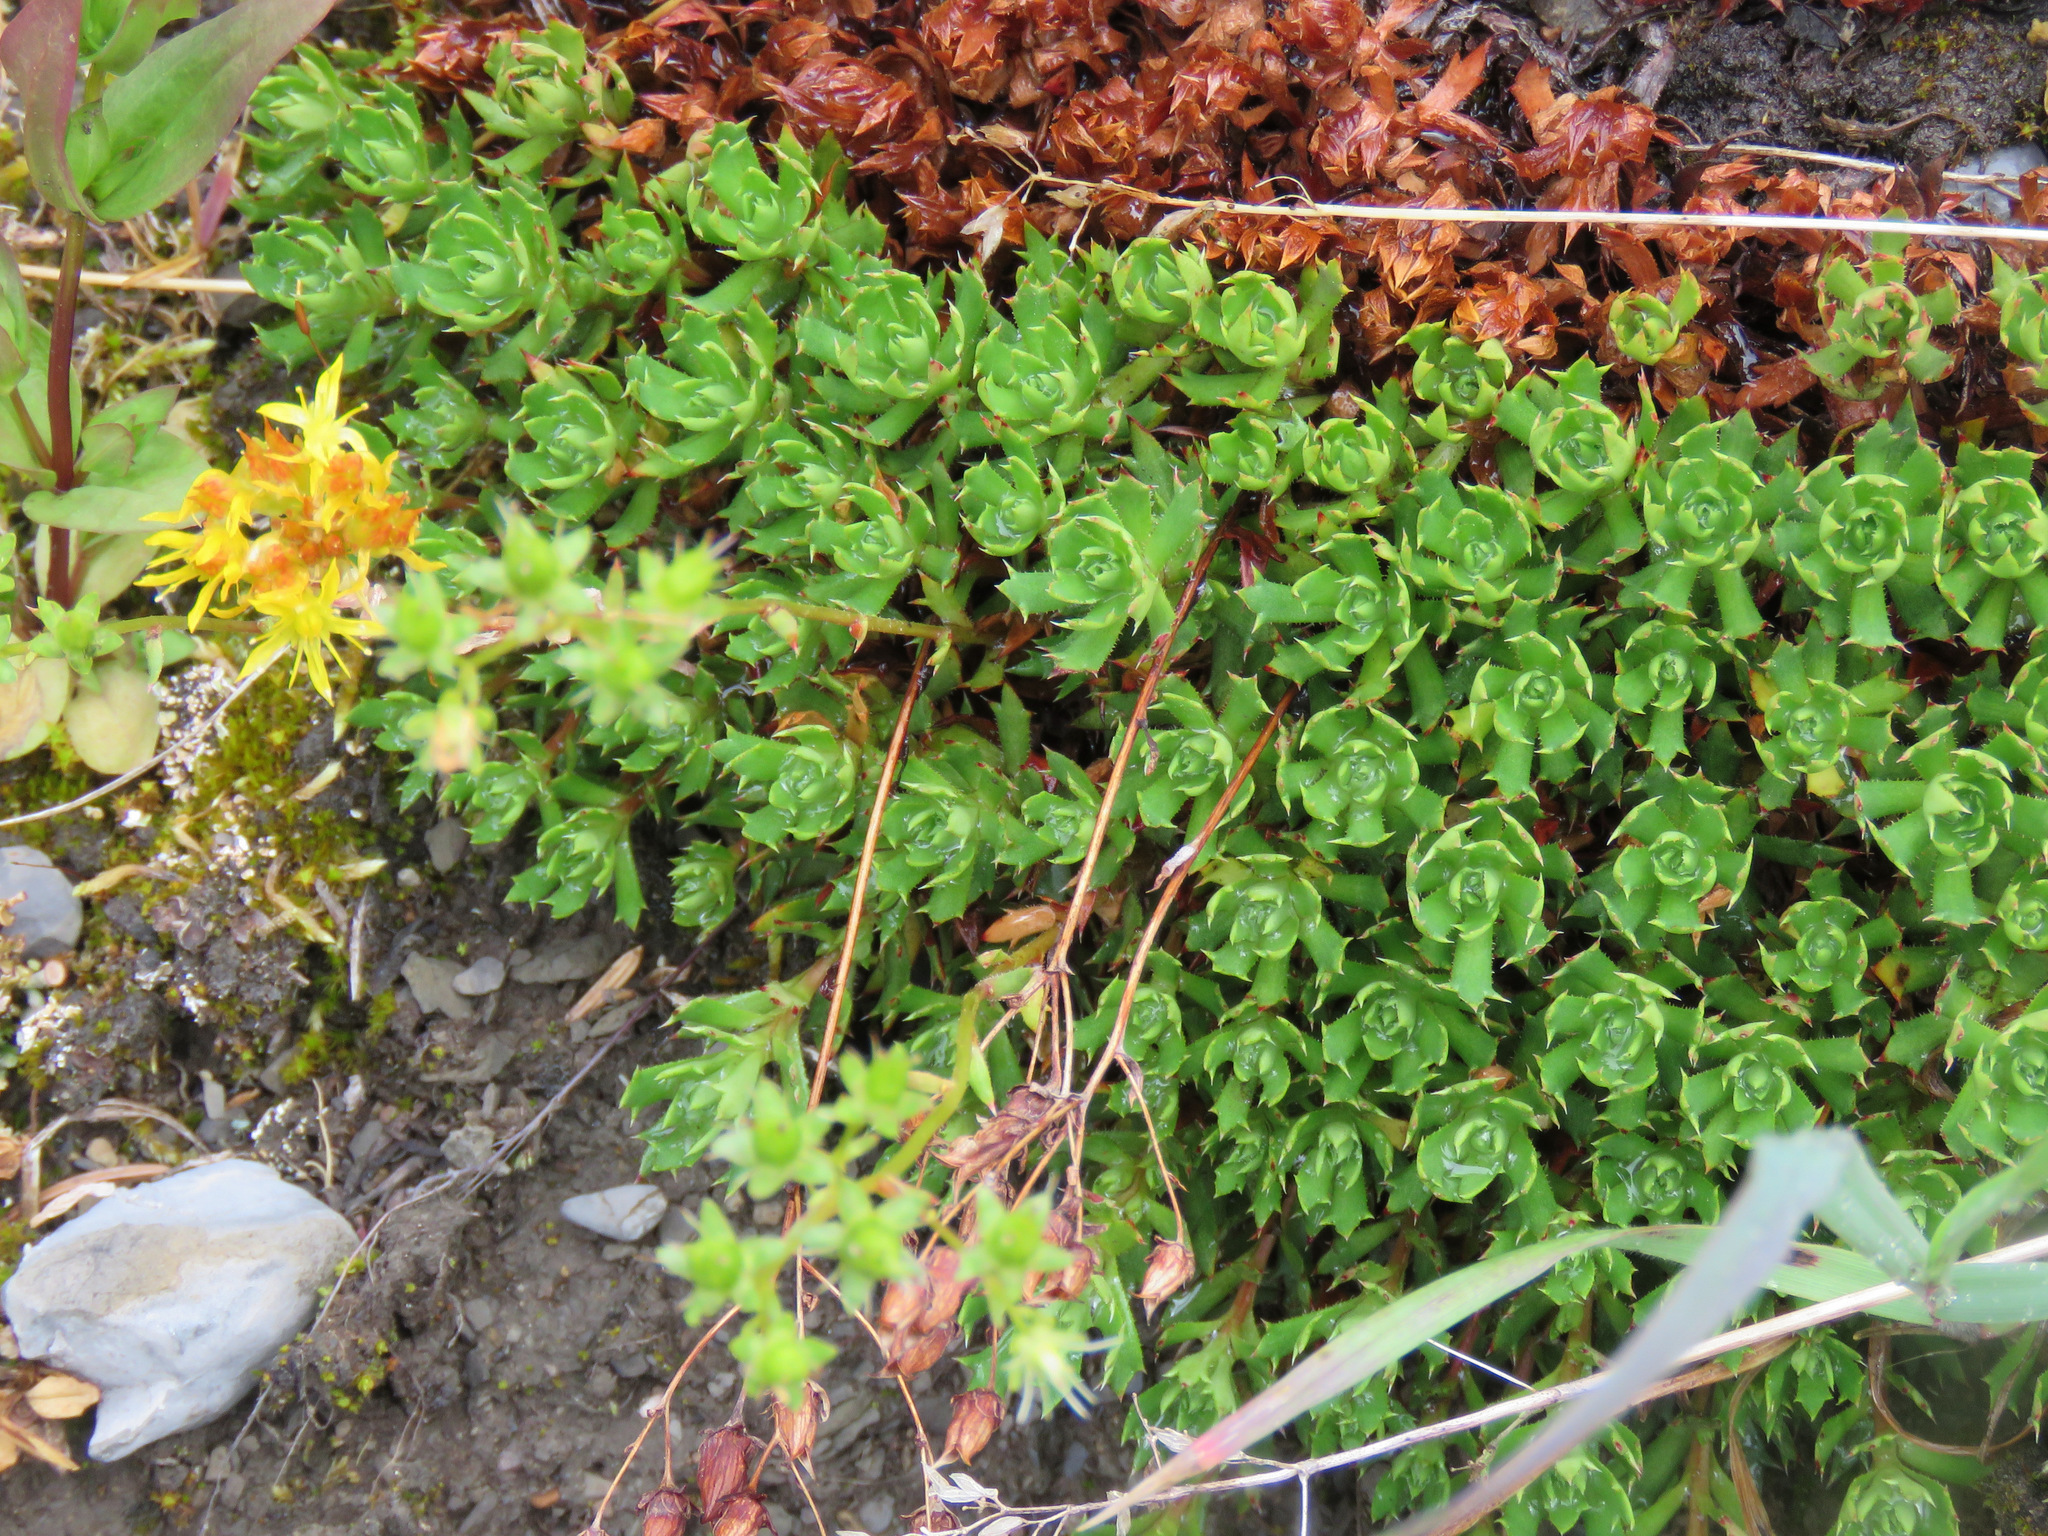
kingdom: Plantae
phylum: Tracheophyta
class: Magnoliopsida
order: Saxifragales
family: Saxifragaceae
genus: Saxifraga
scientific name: Saxifraga tricuspidata
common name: Prickly saxifrage
